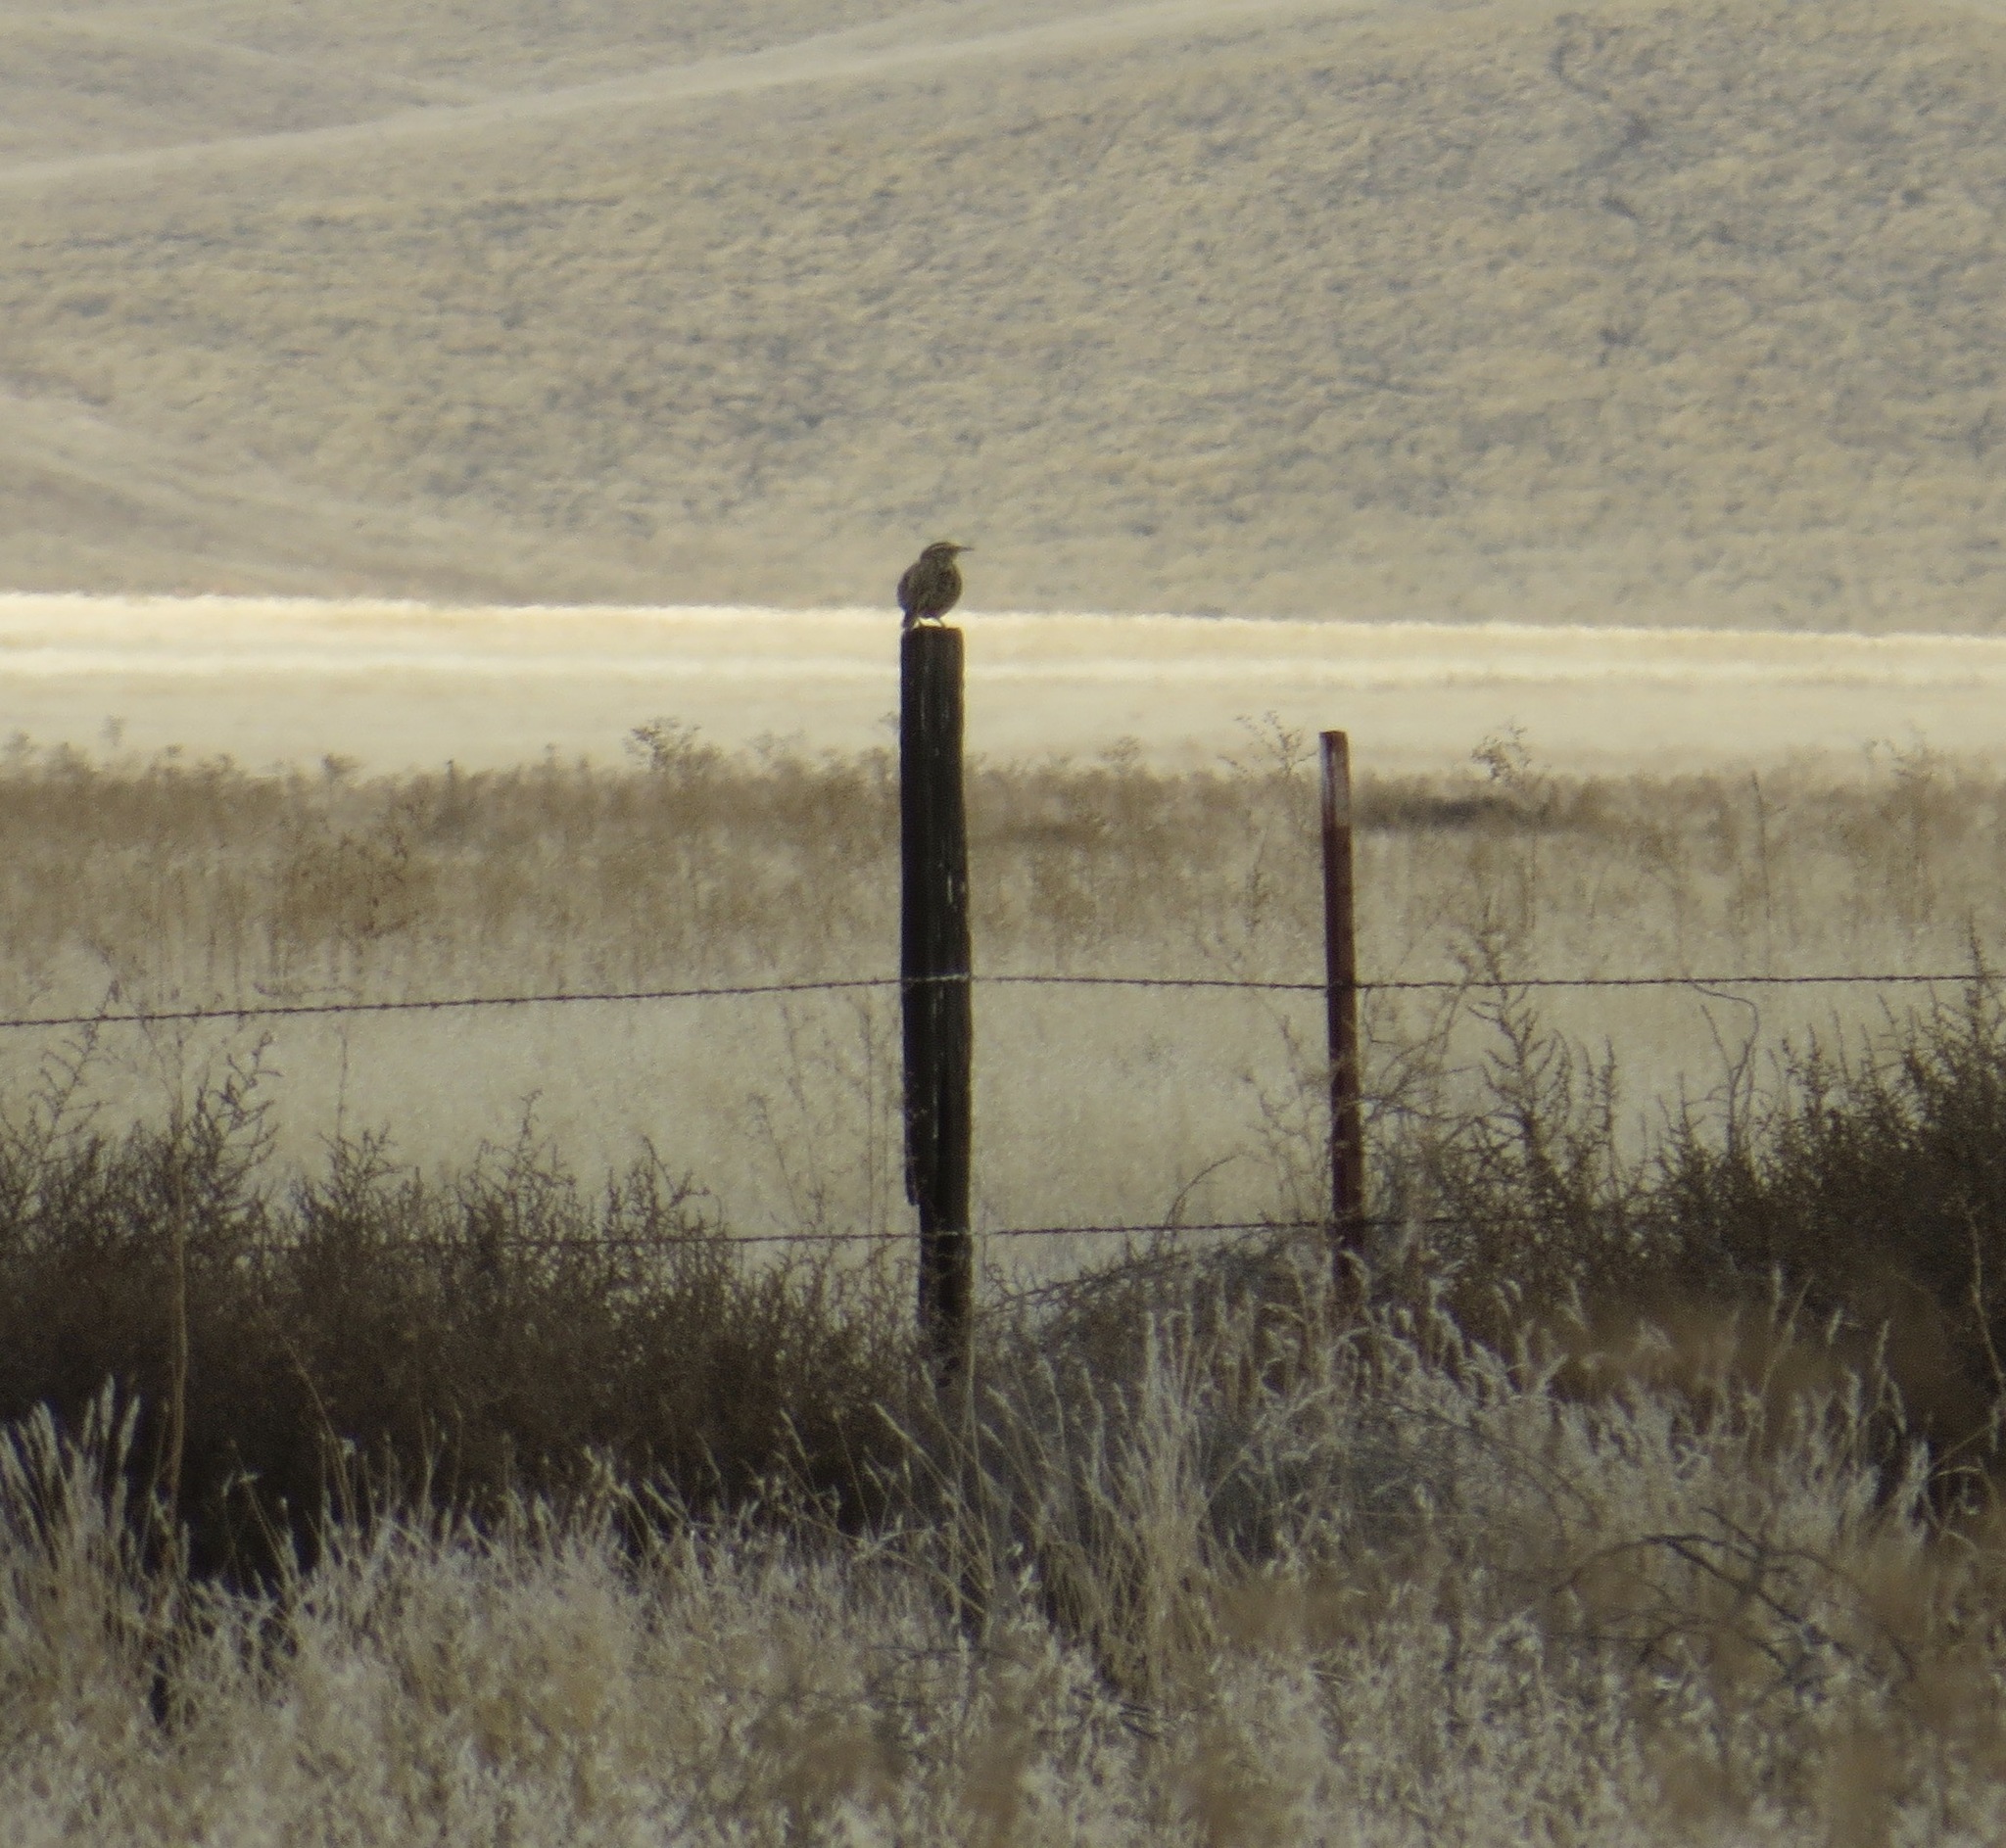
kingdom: Animalia
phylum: Chordata
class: Aves
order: Passeriformes
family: Icteridae
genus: Sturnella
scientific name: Sturnella neglecta
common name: Western meadowlark
